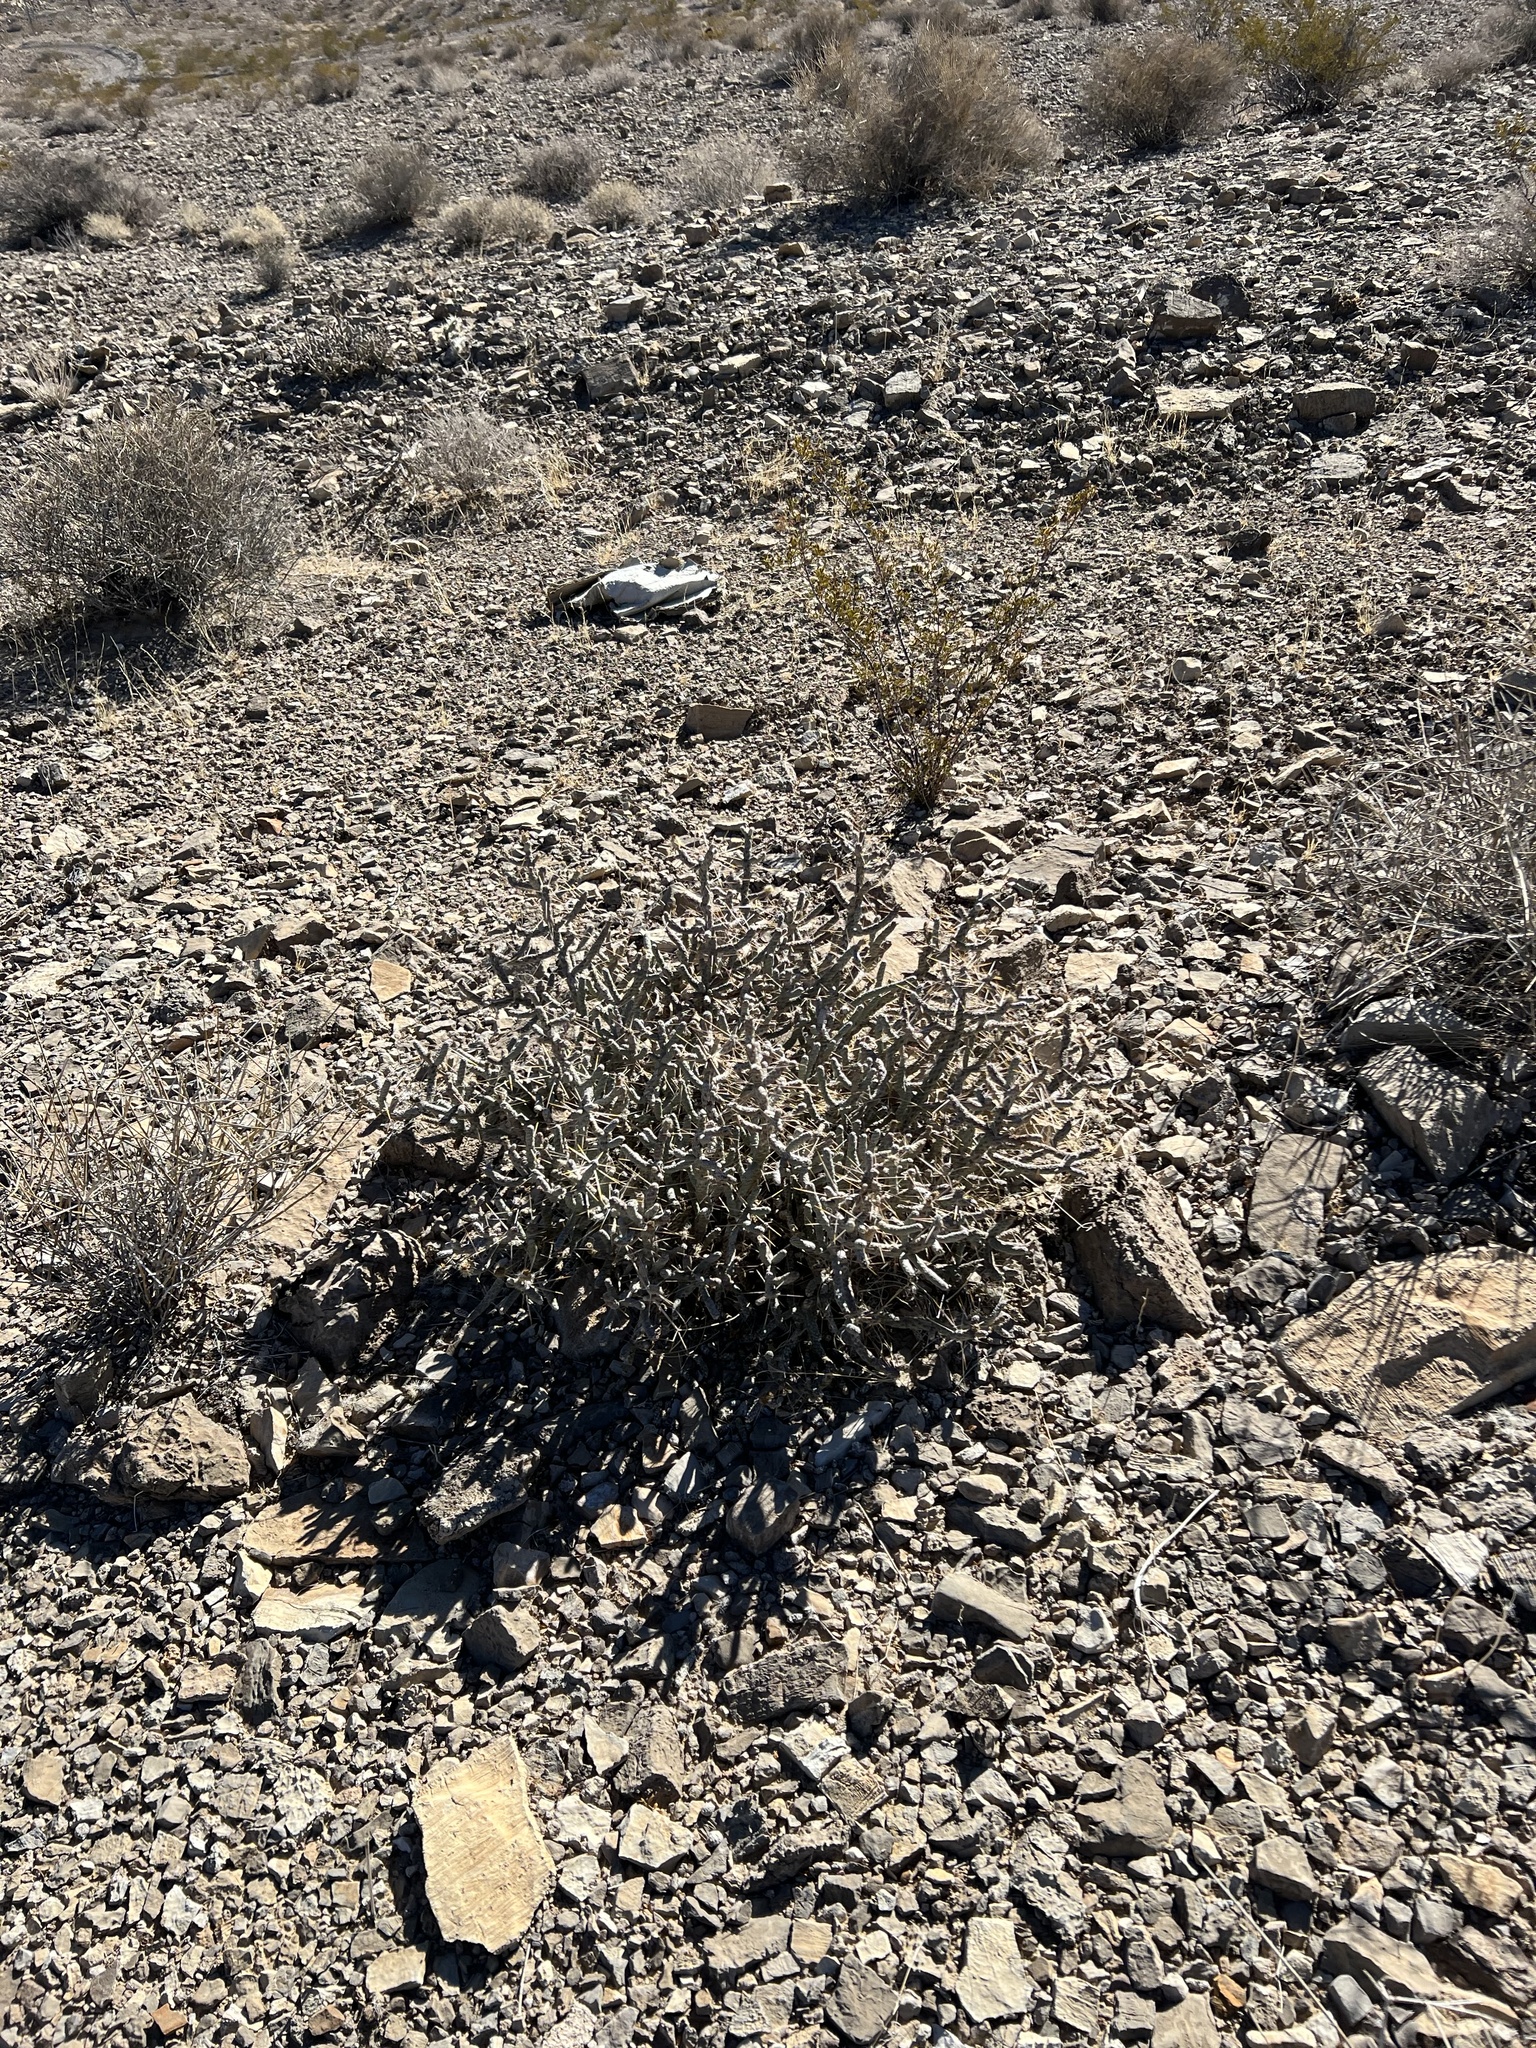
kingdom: Plantae
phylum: Tracheophyta
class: Magnoliopsida
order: Caryophyllales
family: Cactaceae
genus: Cylindropuntia
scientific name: Cylindropuntia ramosissima
